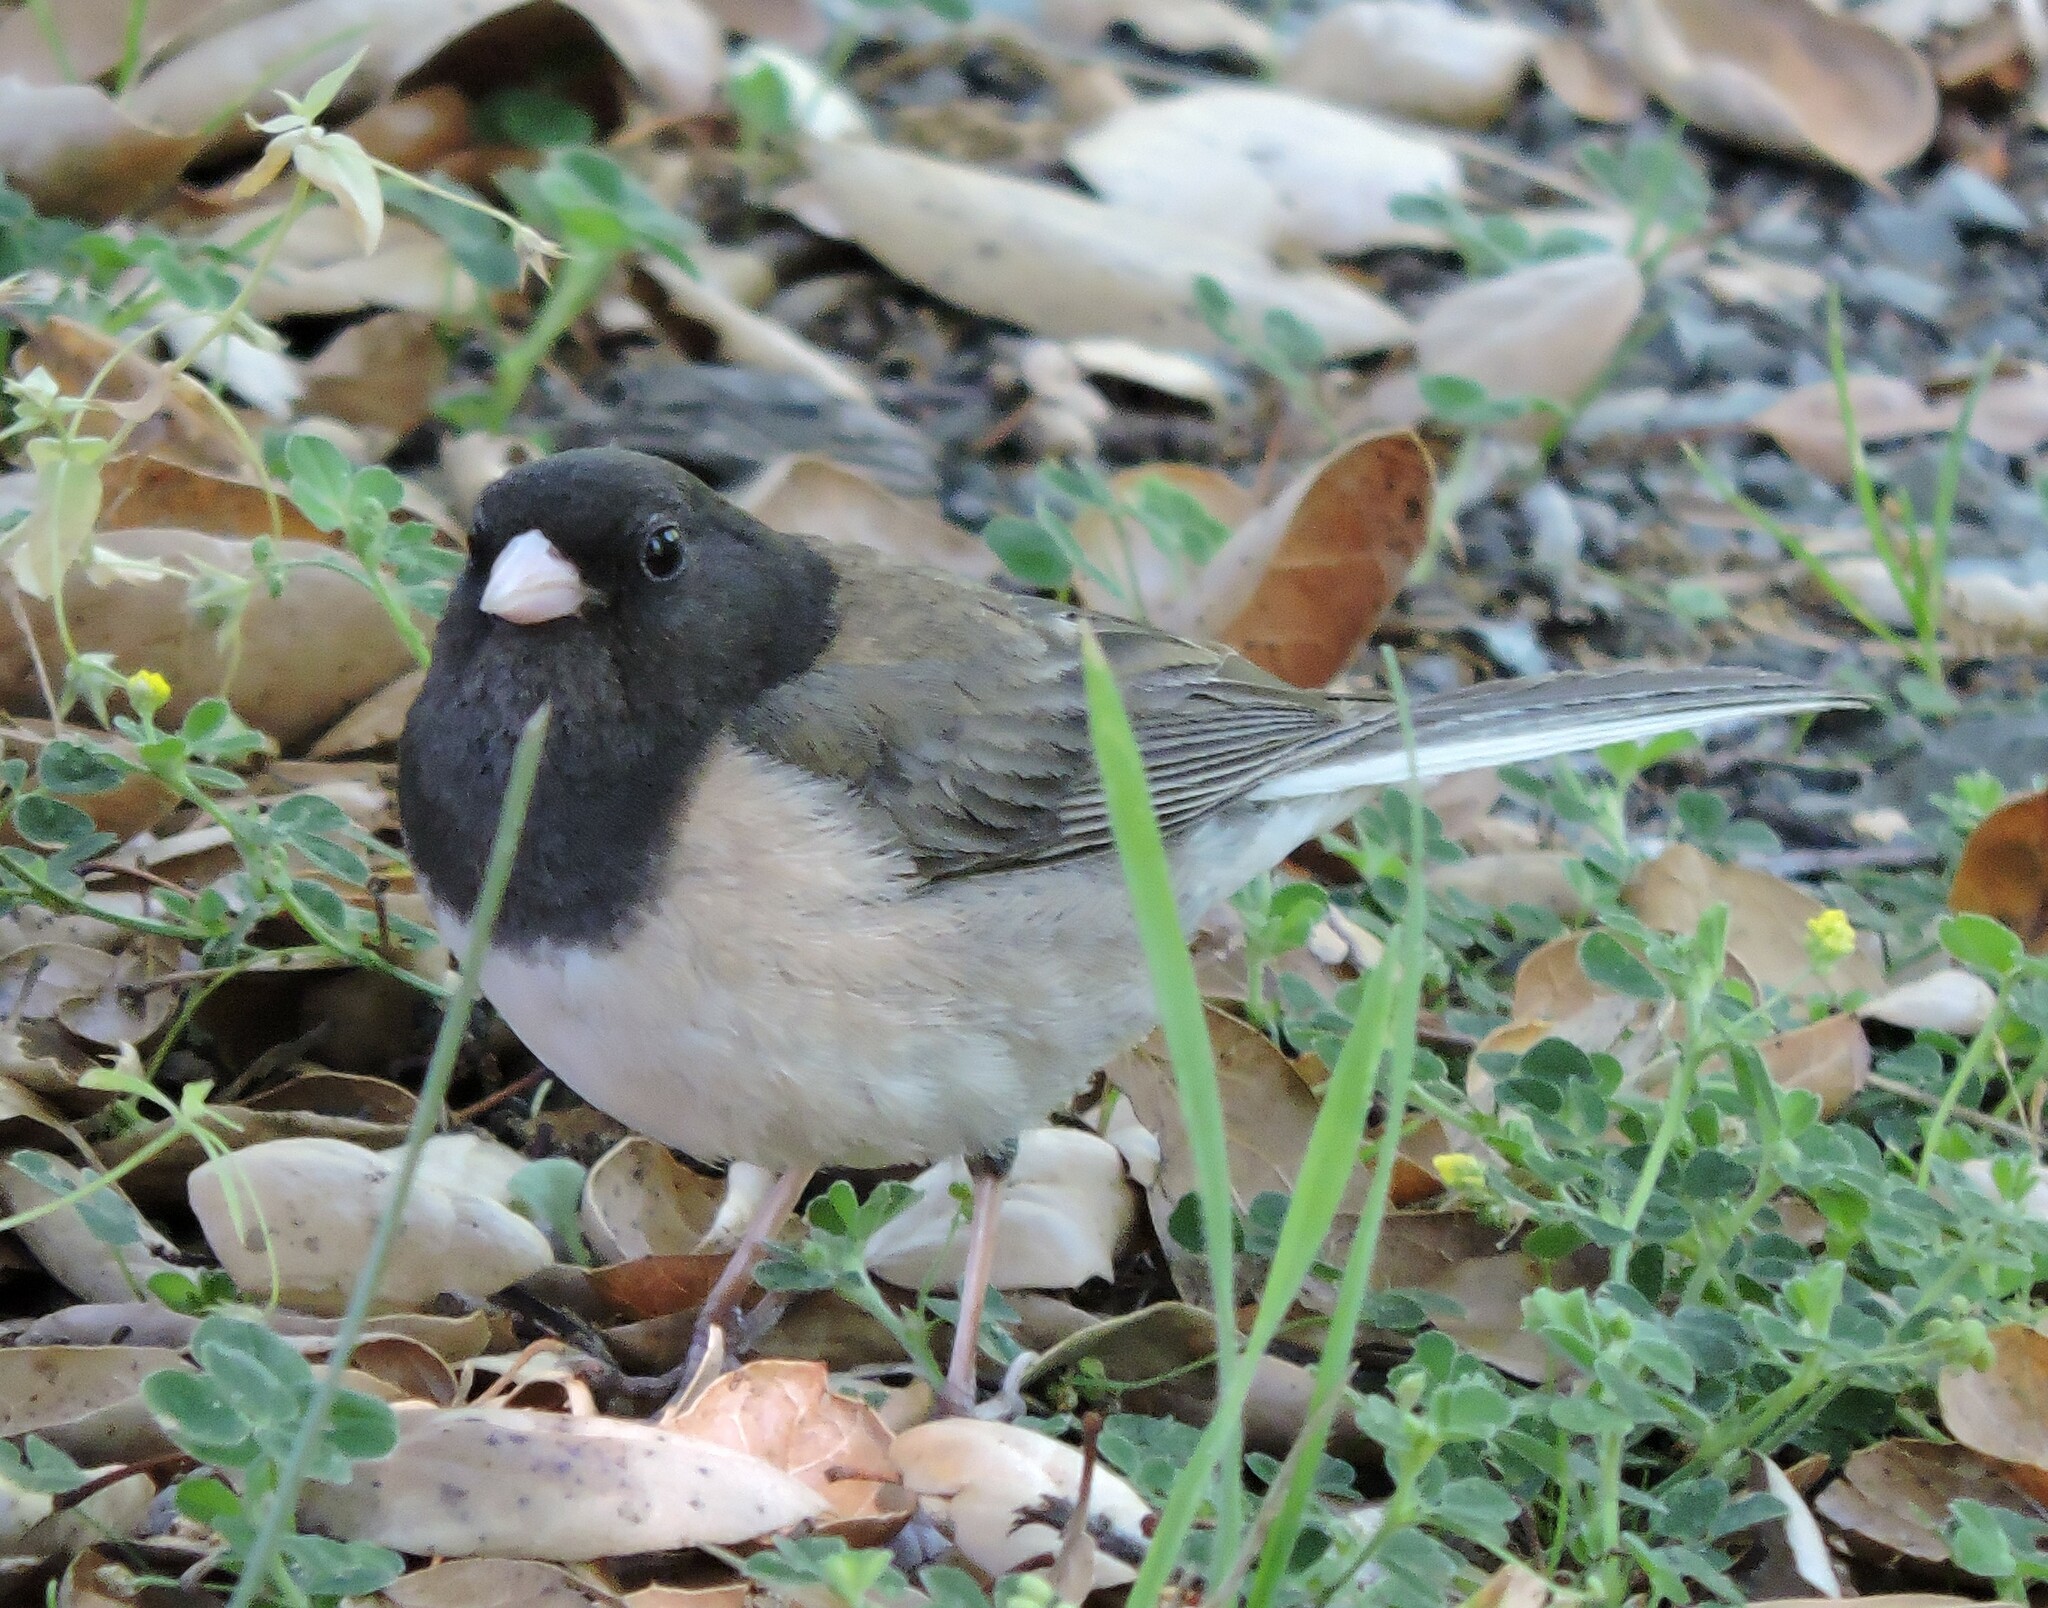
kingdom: Animalia
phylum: Chordata
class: Aves
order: Passeriformes
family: Passerellidae
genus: Junco
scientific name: Junco hyemalis
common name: Dark-eyed junco
